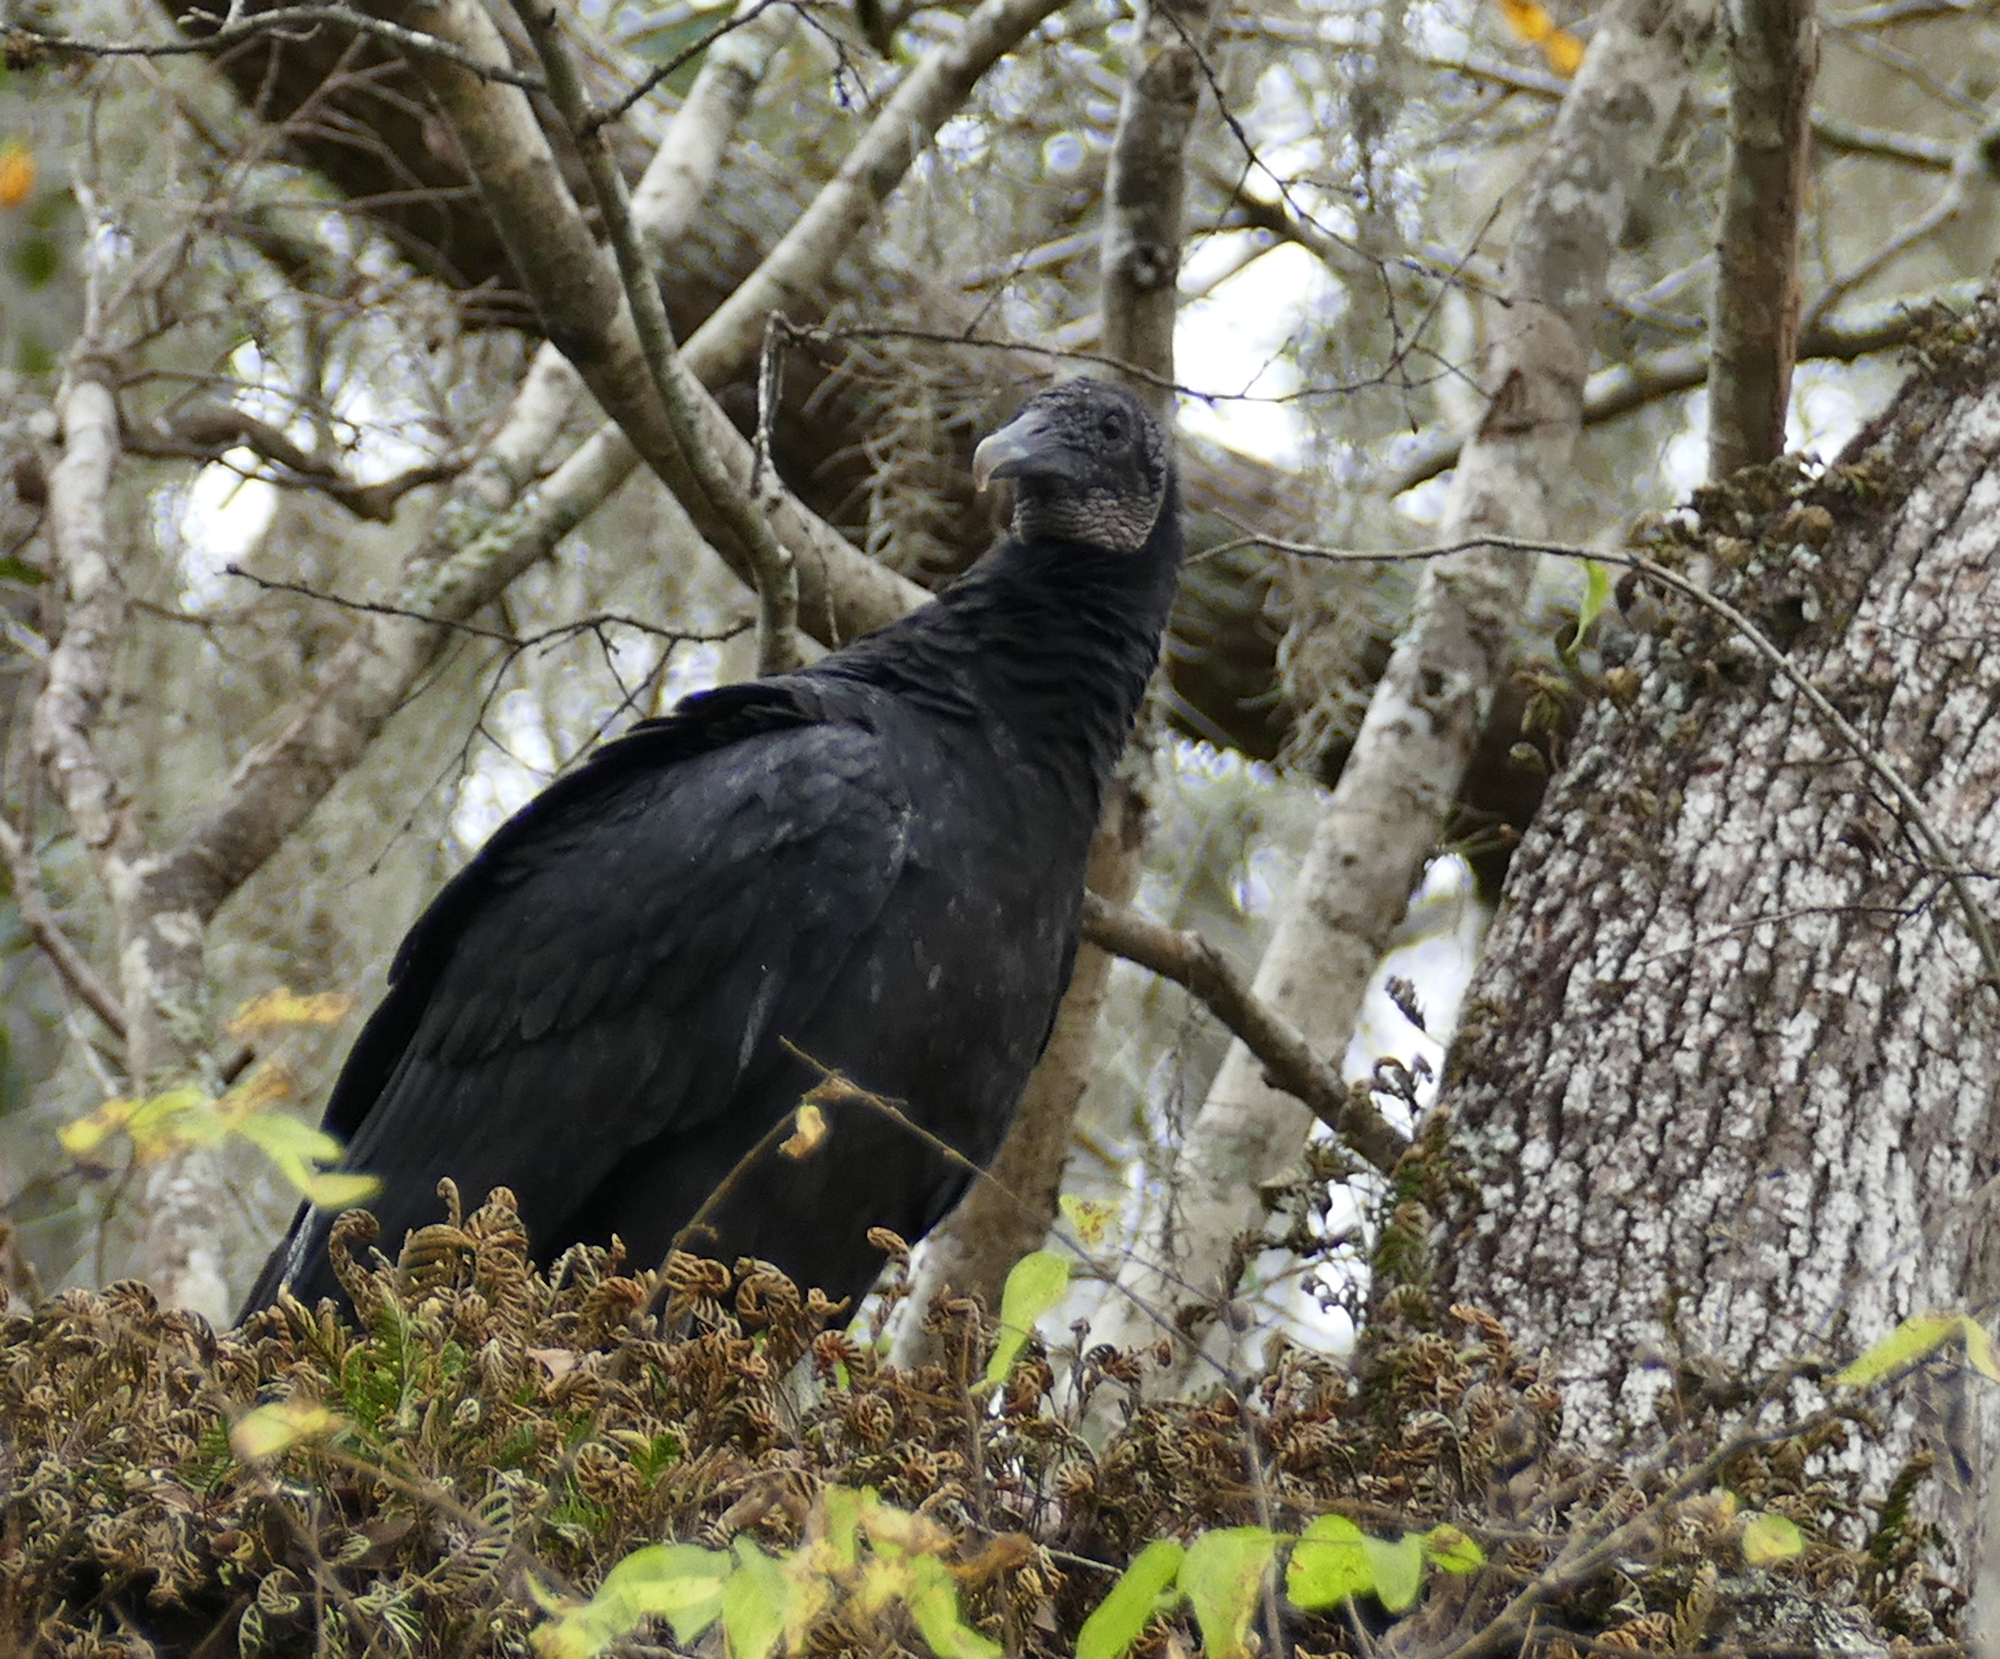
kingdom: Animalia
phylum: Chordata
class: Aves
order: Accipitriformes
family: Cathartidae
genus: Coragyps
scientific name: Coragyps atratus
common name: Black vulture
